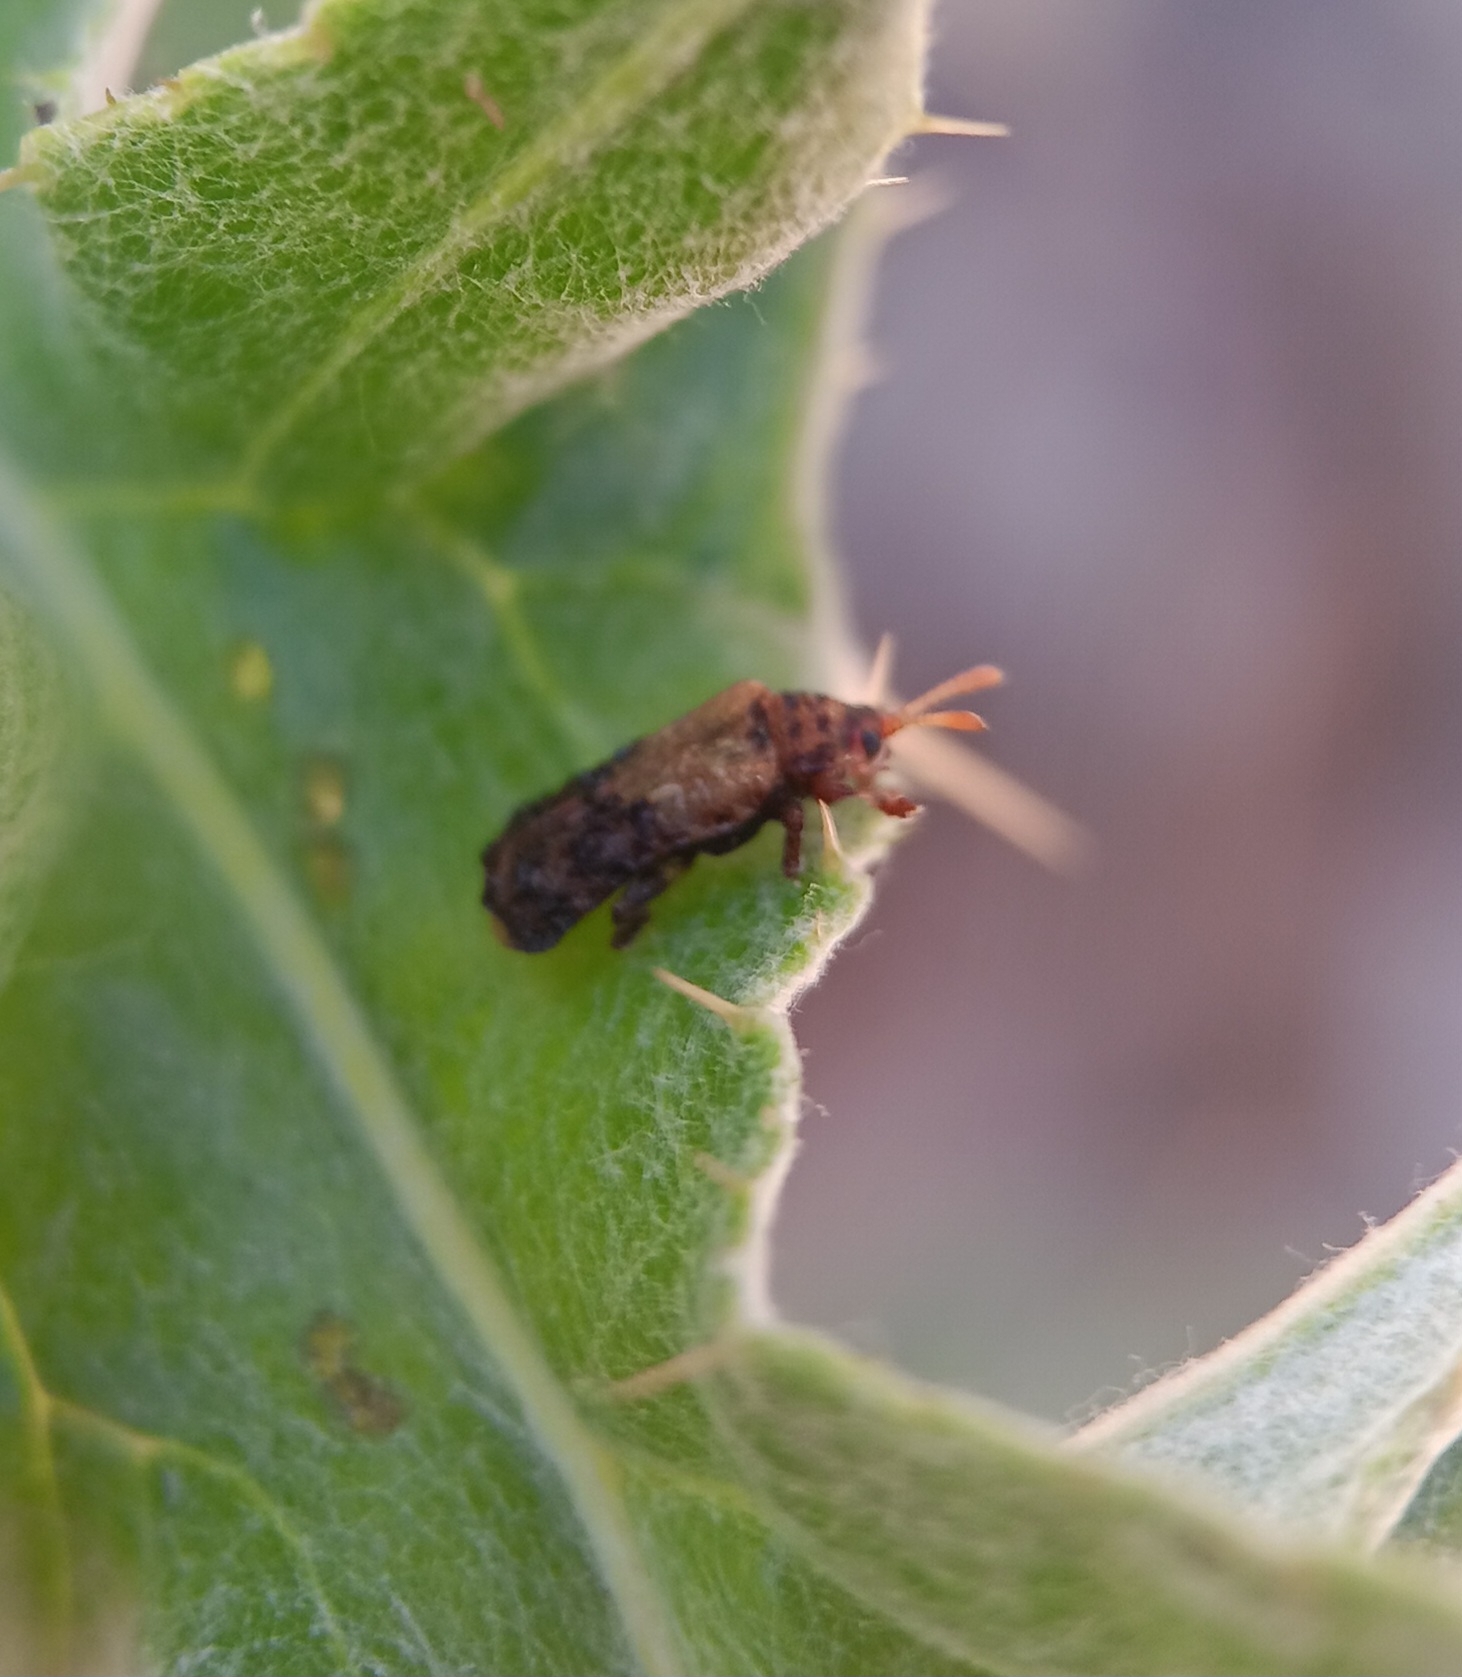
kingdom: Animalia
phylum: Arthropoda
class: Insecta
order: Coleoptera
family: Chrysomelidae
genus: Octotoma
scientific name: Octotoma marginicollis
